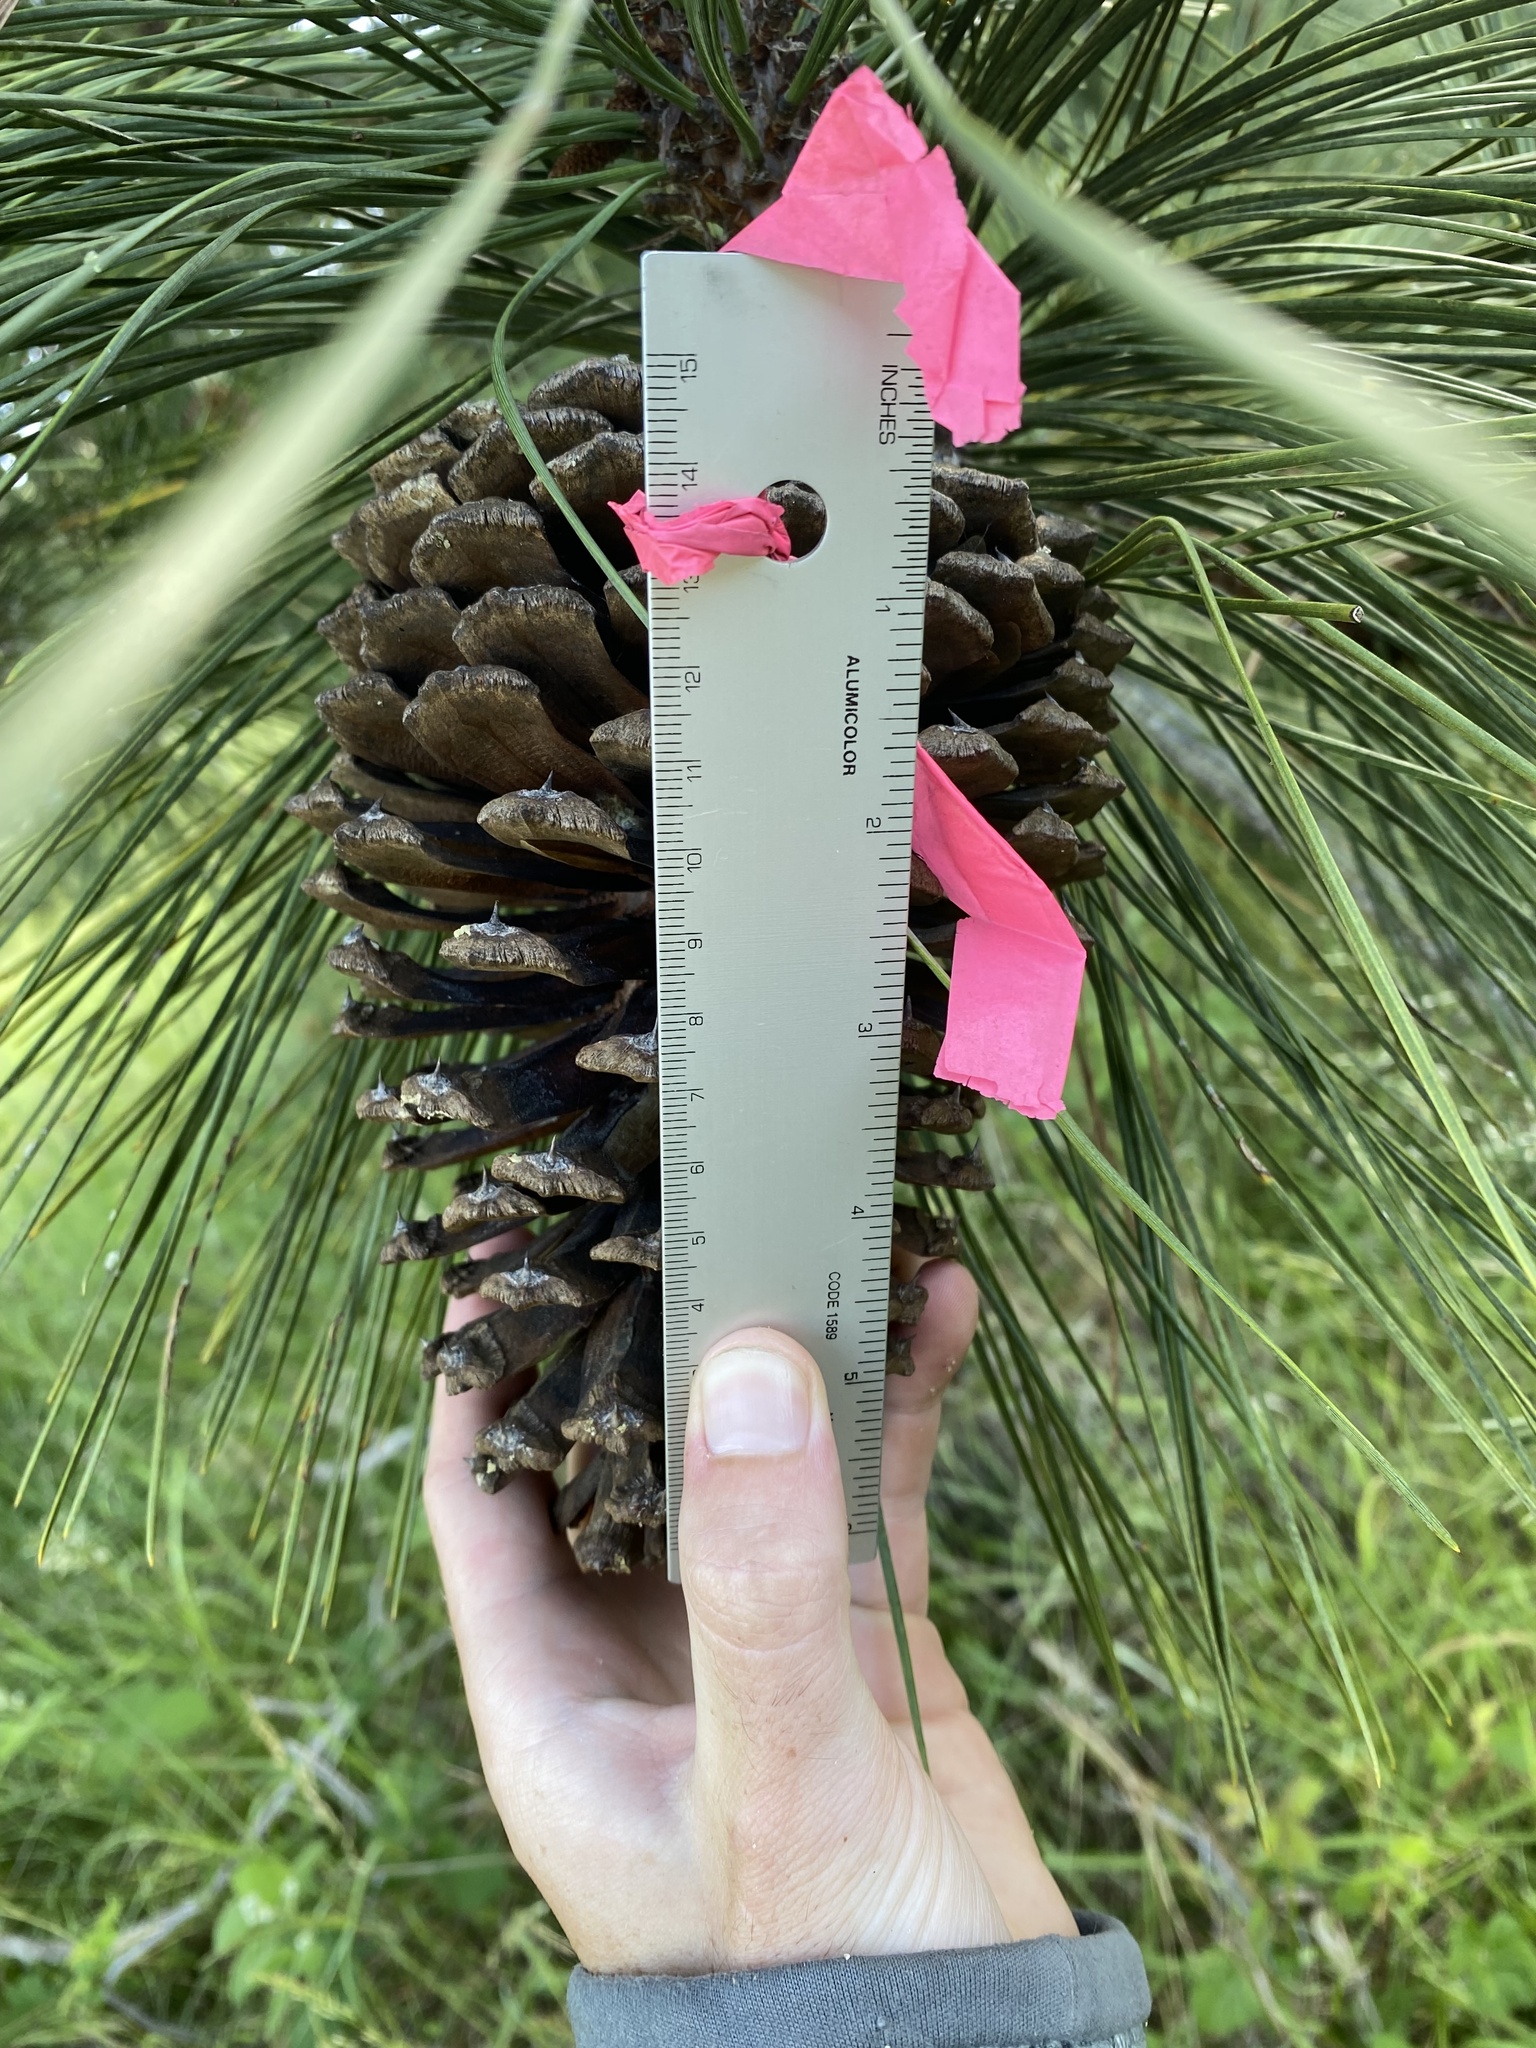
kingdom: Plantae
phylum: Tracheophyta
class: Pinopsida
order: Pinales
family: Pinaceae
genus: Pinus
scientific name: Pinus jeffreyi
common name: Jeffrey pine
